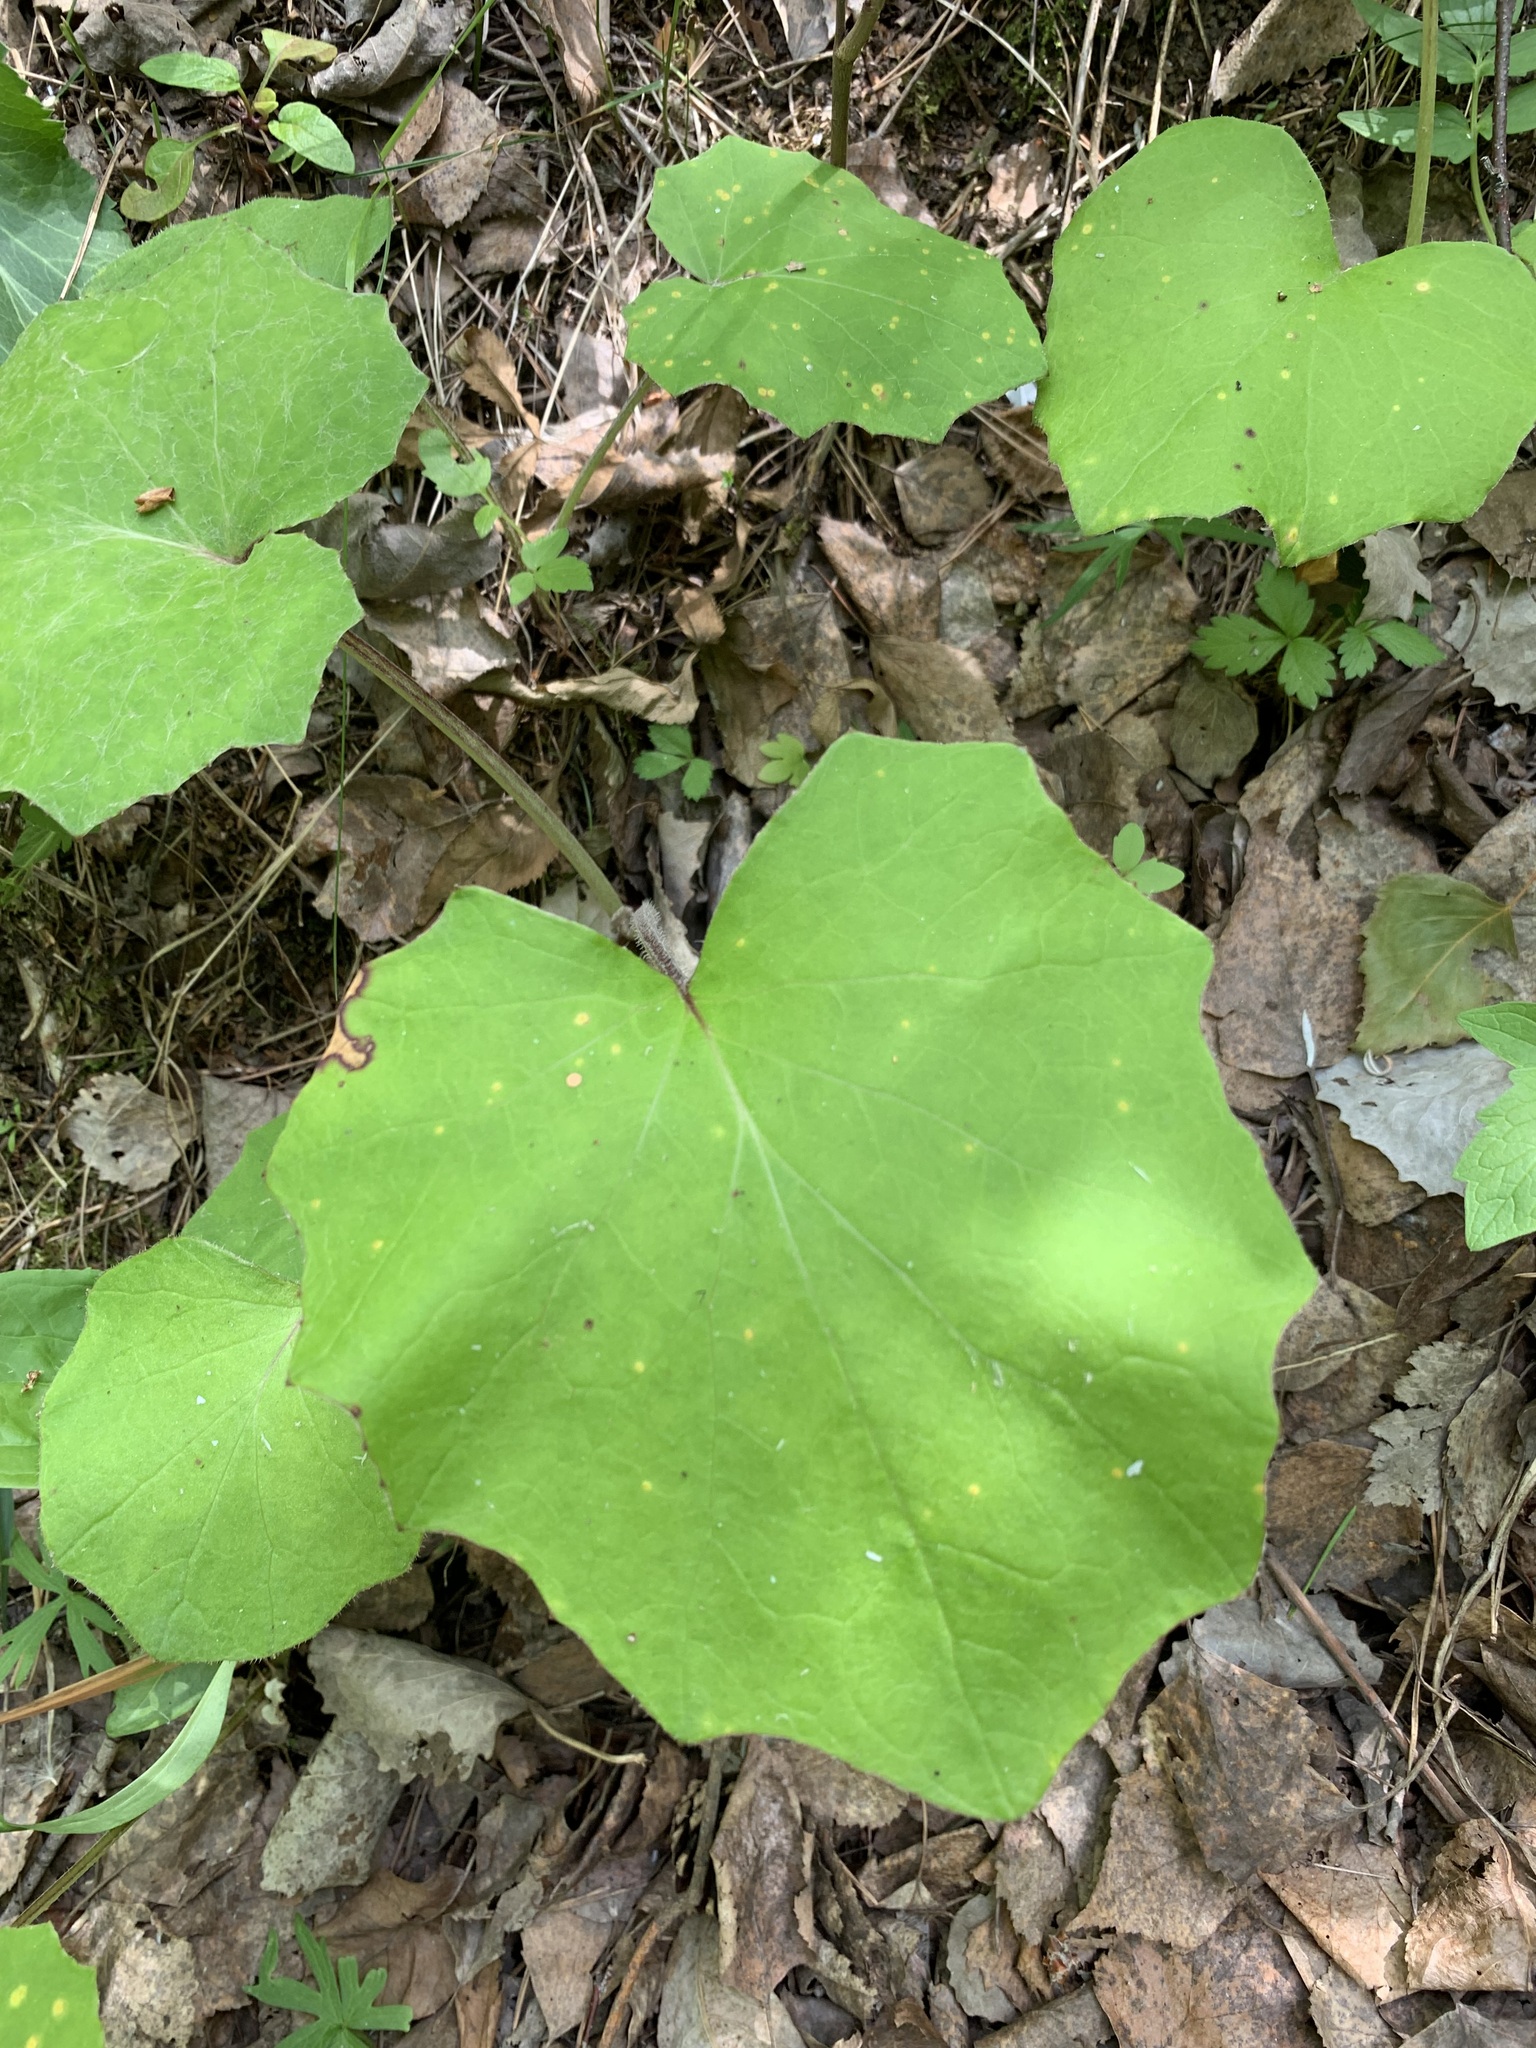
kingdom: Plantae
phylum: Tracheophyta
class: Magnoliopsida
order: Asterales
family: Asteraceae
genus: Tussilago
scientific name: Tussilago farfara
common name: Coltsfoot
